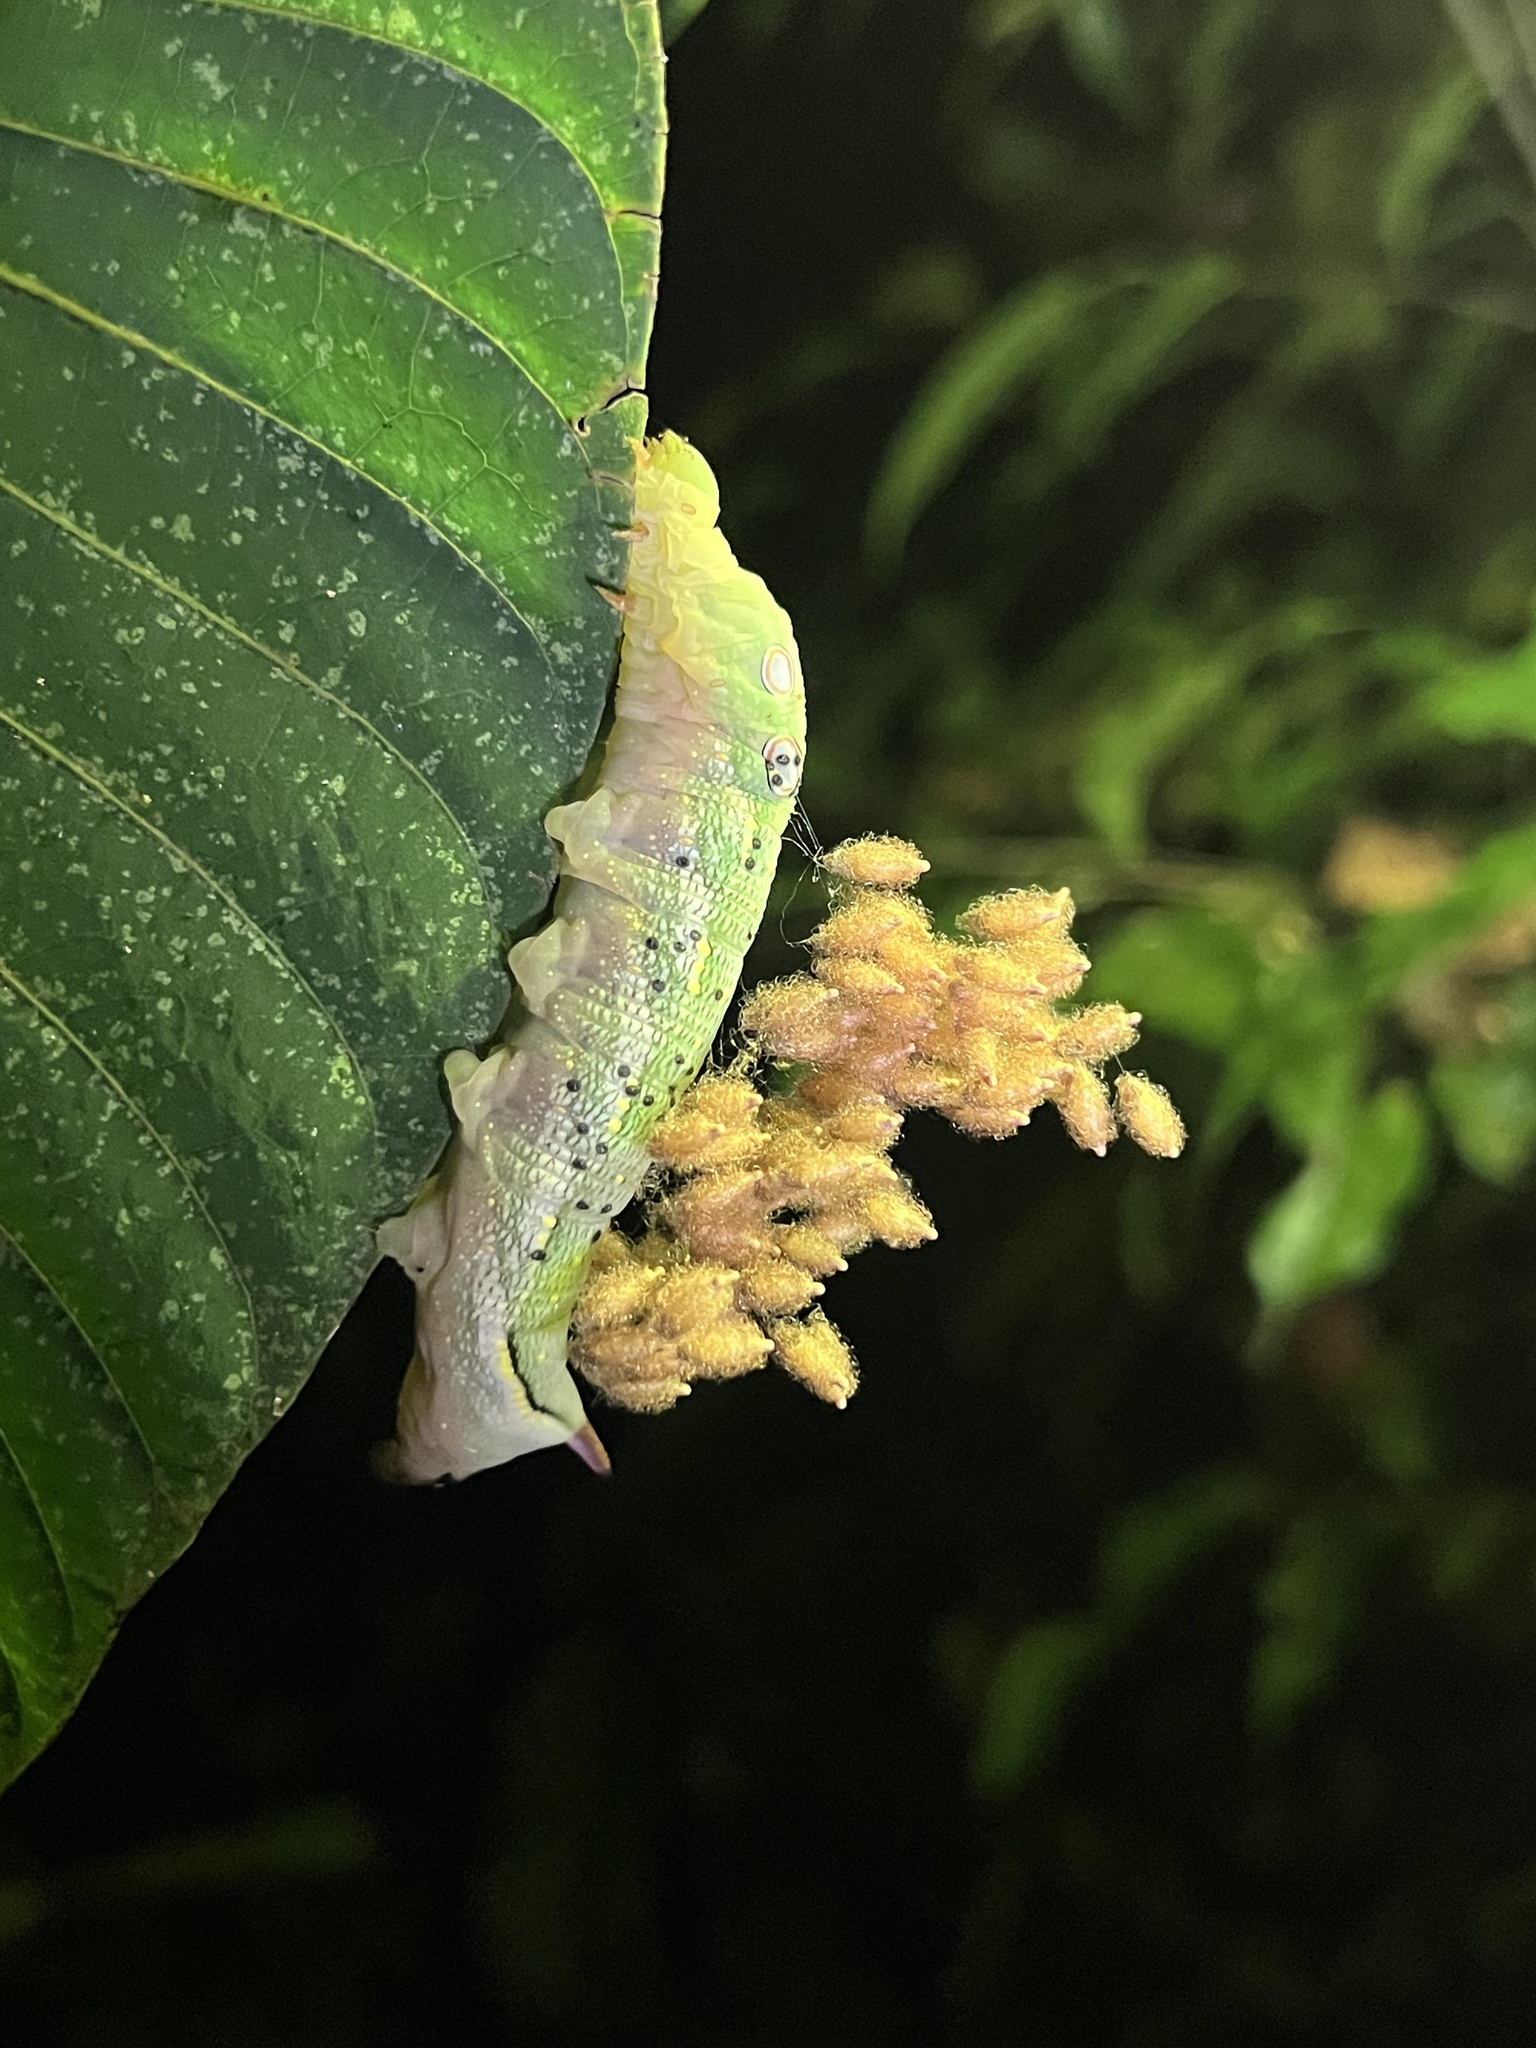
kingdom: Animalia
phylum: Arthropoda
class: Insecta
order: Lepidoptera
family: Sphingidae
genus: Xylophanes
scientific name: Xylophanes chiron
